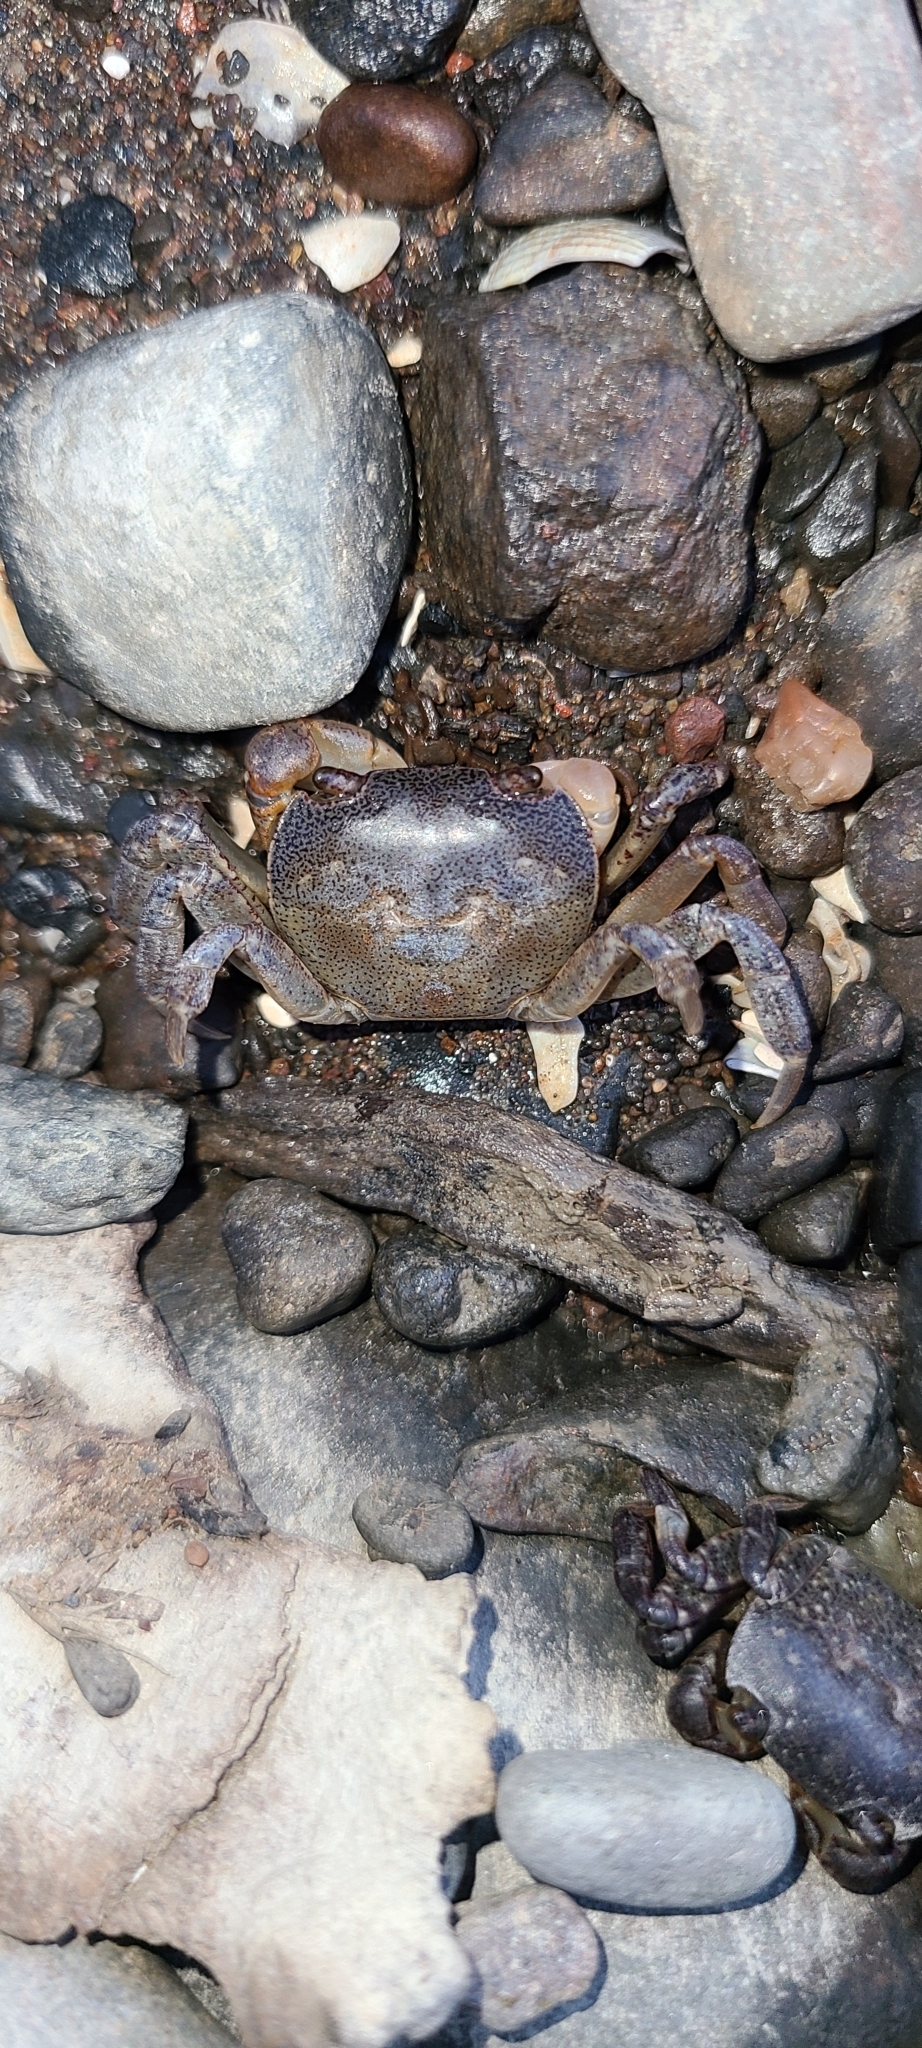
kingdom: Animalia
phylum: Arthropoda
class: Malacostraca
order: Decapoda
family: Varunidae
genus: Cyclograpsus
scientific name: Cyclograpsus lavauxi
